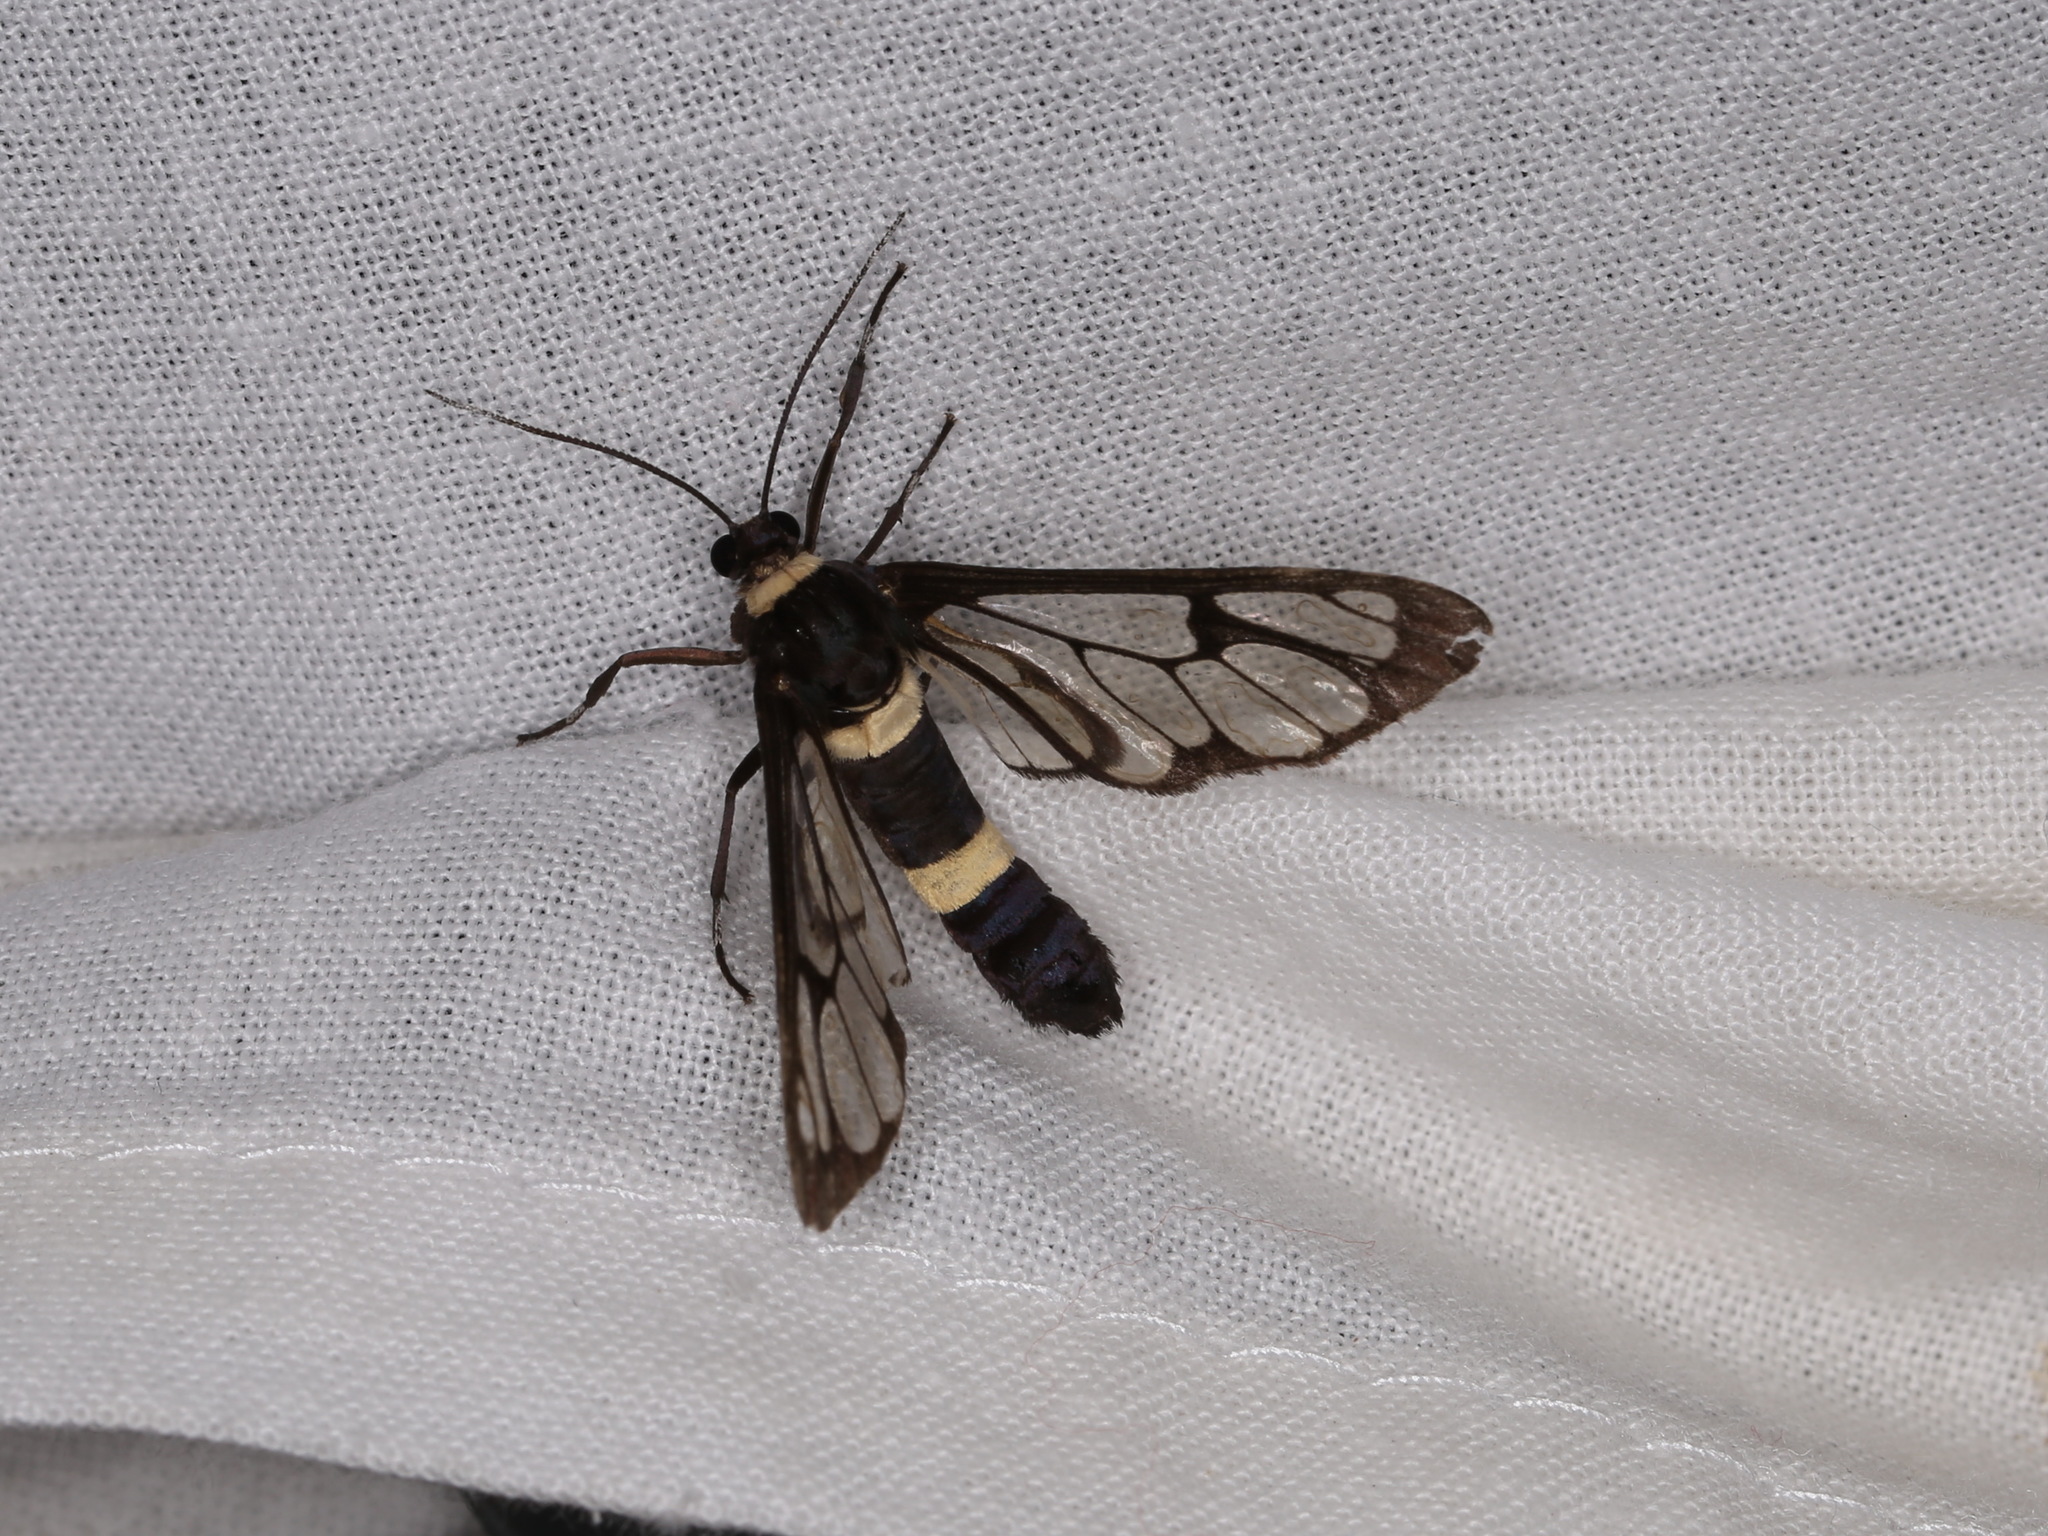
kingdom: Animalia
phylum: Arthropoda
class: Insecta
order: Lepidoptera
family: Erebidae
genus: Syntomoides
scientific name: Syntomoides imaon
